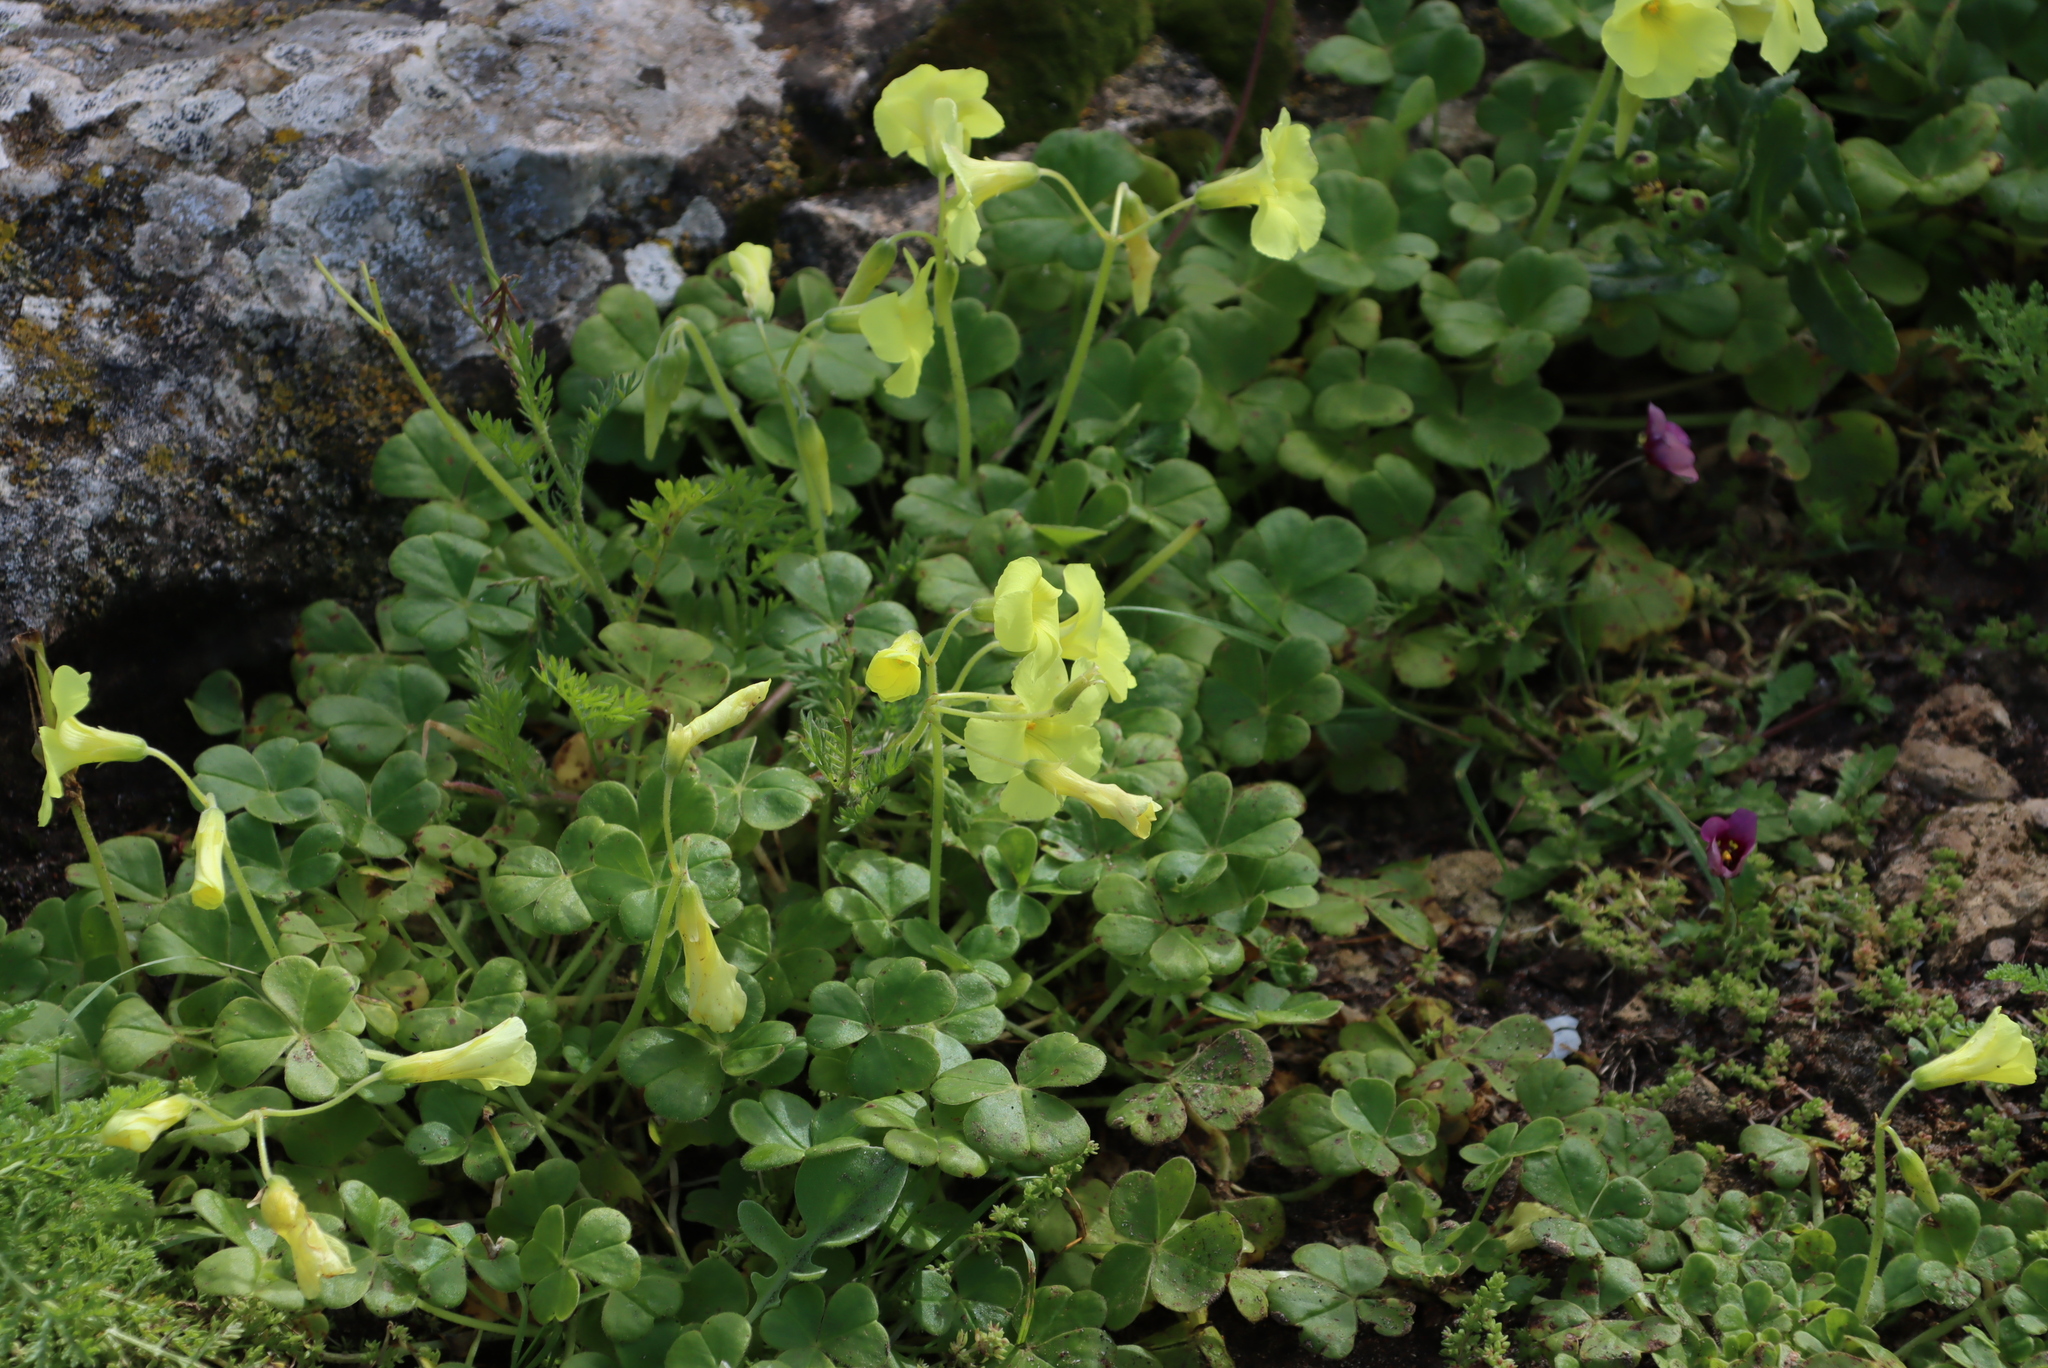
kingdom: Plantae
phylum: Tracheophyta
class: Magnoliopsida
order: Oxalidales
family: Oxalidaceae
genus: Oxalis
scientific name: Oxalis compressa
